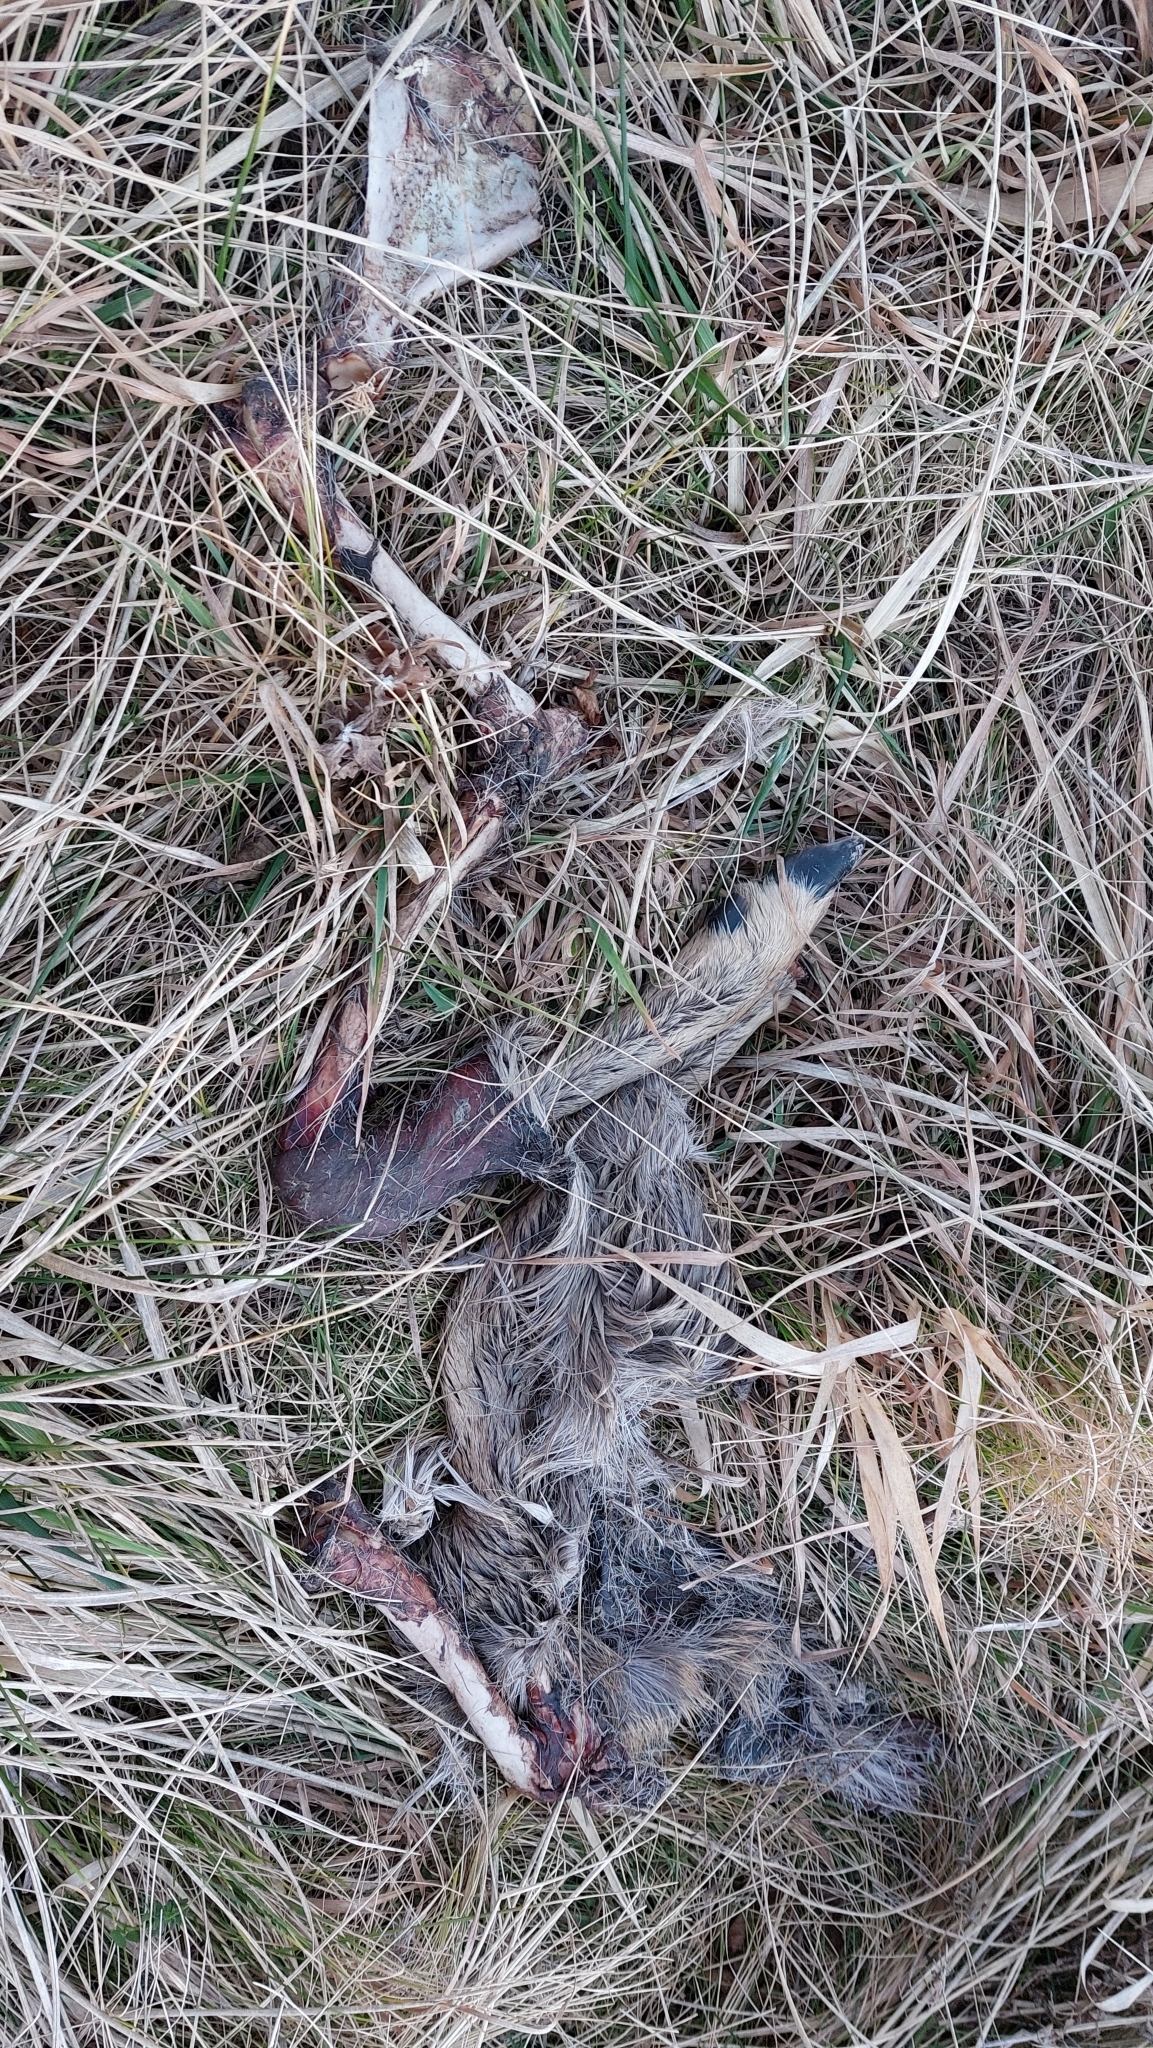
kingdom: Animalia
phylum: Chordata
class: Mammalia
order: Artiodactyla
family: Cervidae
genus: Capreolus
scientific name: Capreolus capreolus
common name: Western roe deer
